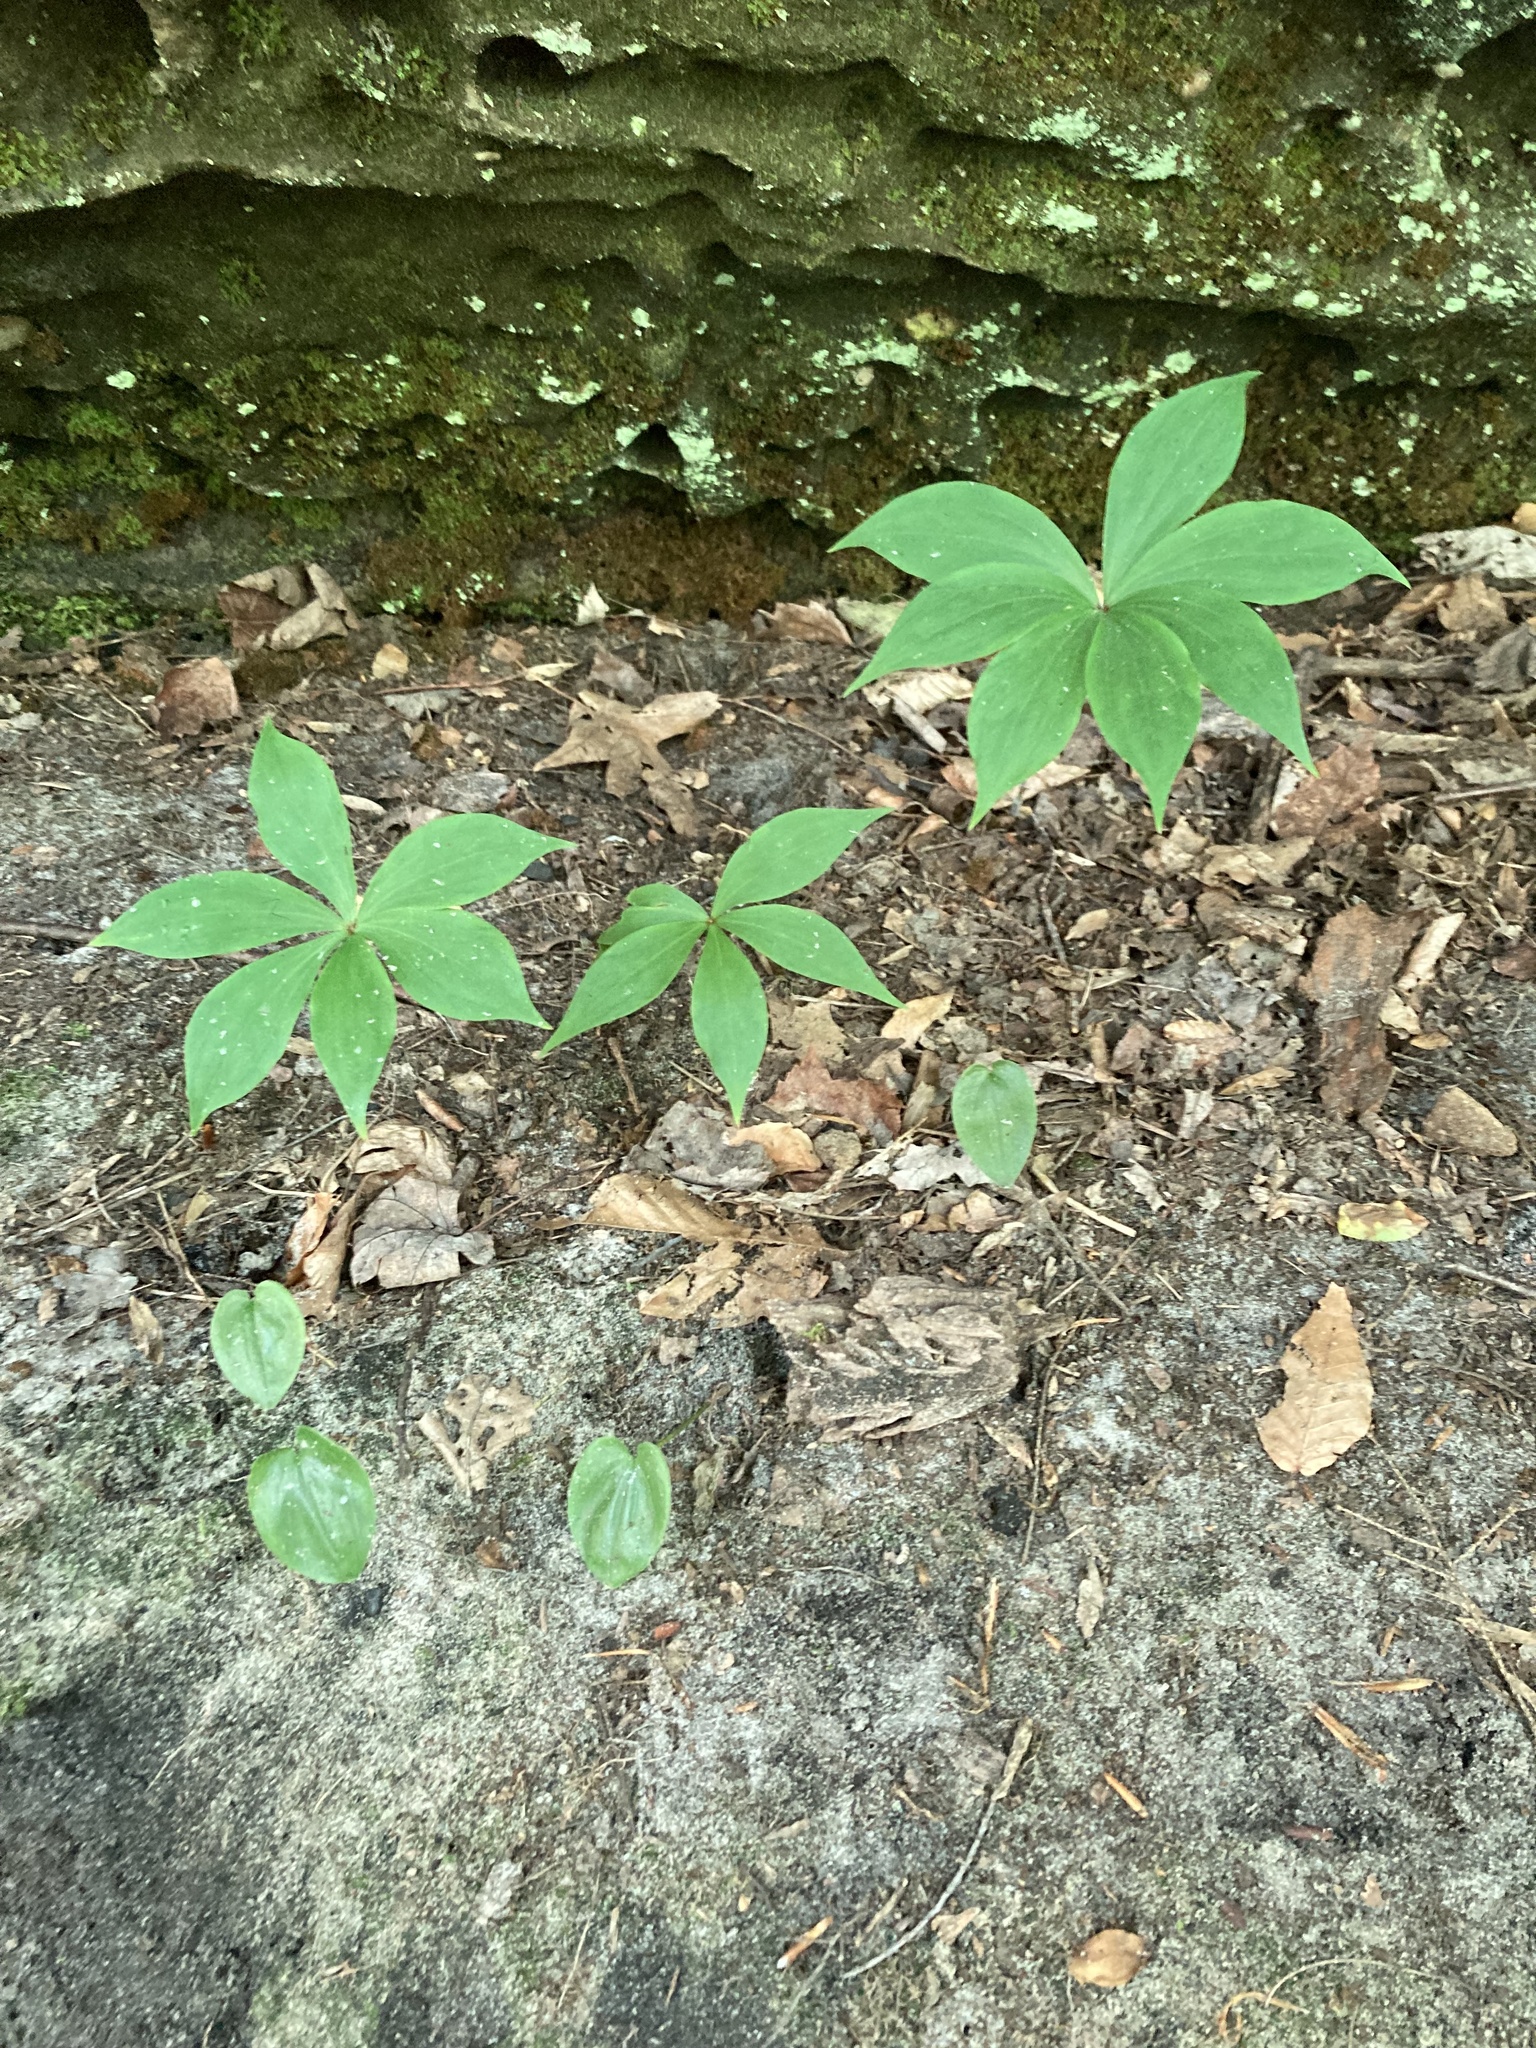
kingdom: Plantae
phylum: Tracheophyta
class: Liliopsida
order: Liliales
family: Liliaceae
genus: Medeola
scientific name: Medeola virginiana
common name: Indian cucumber-root
